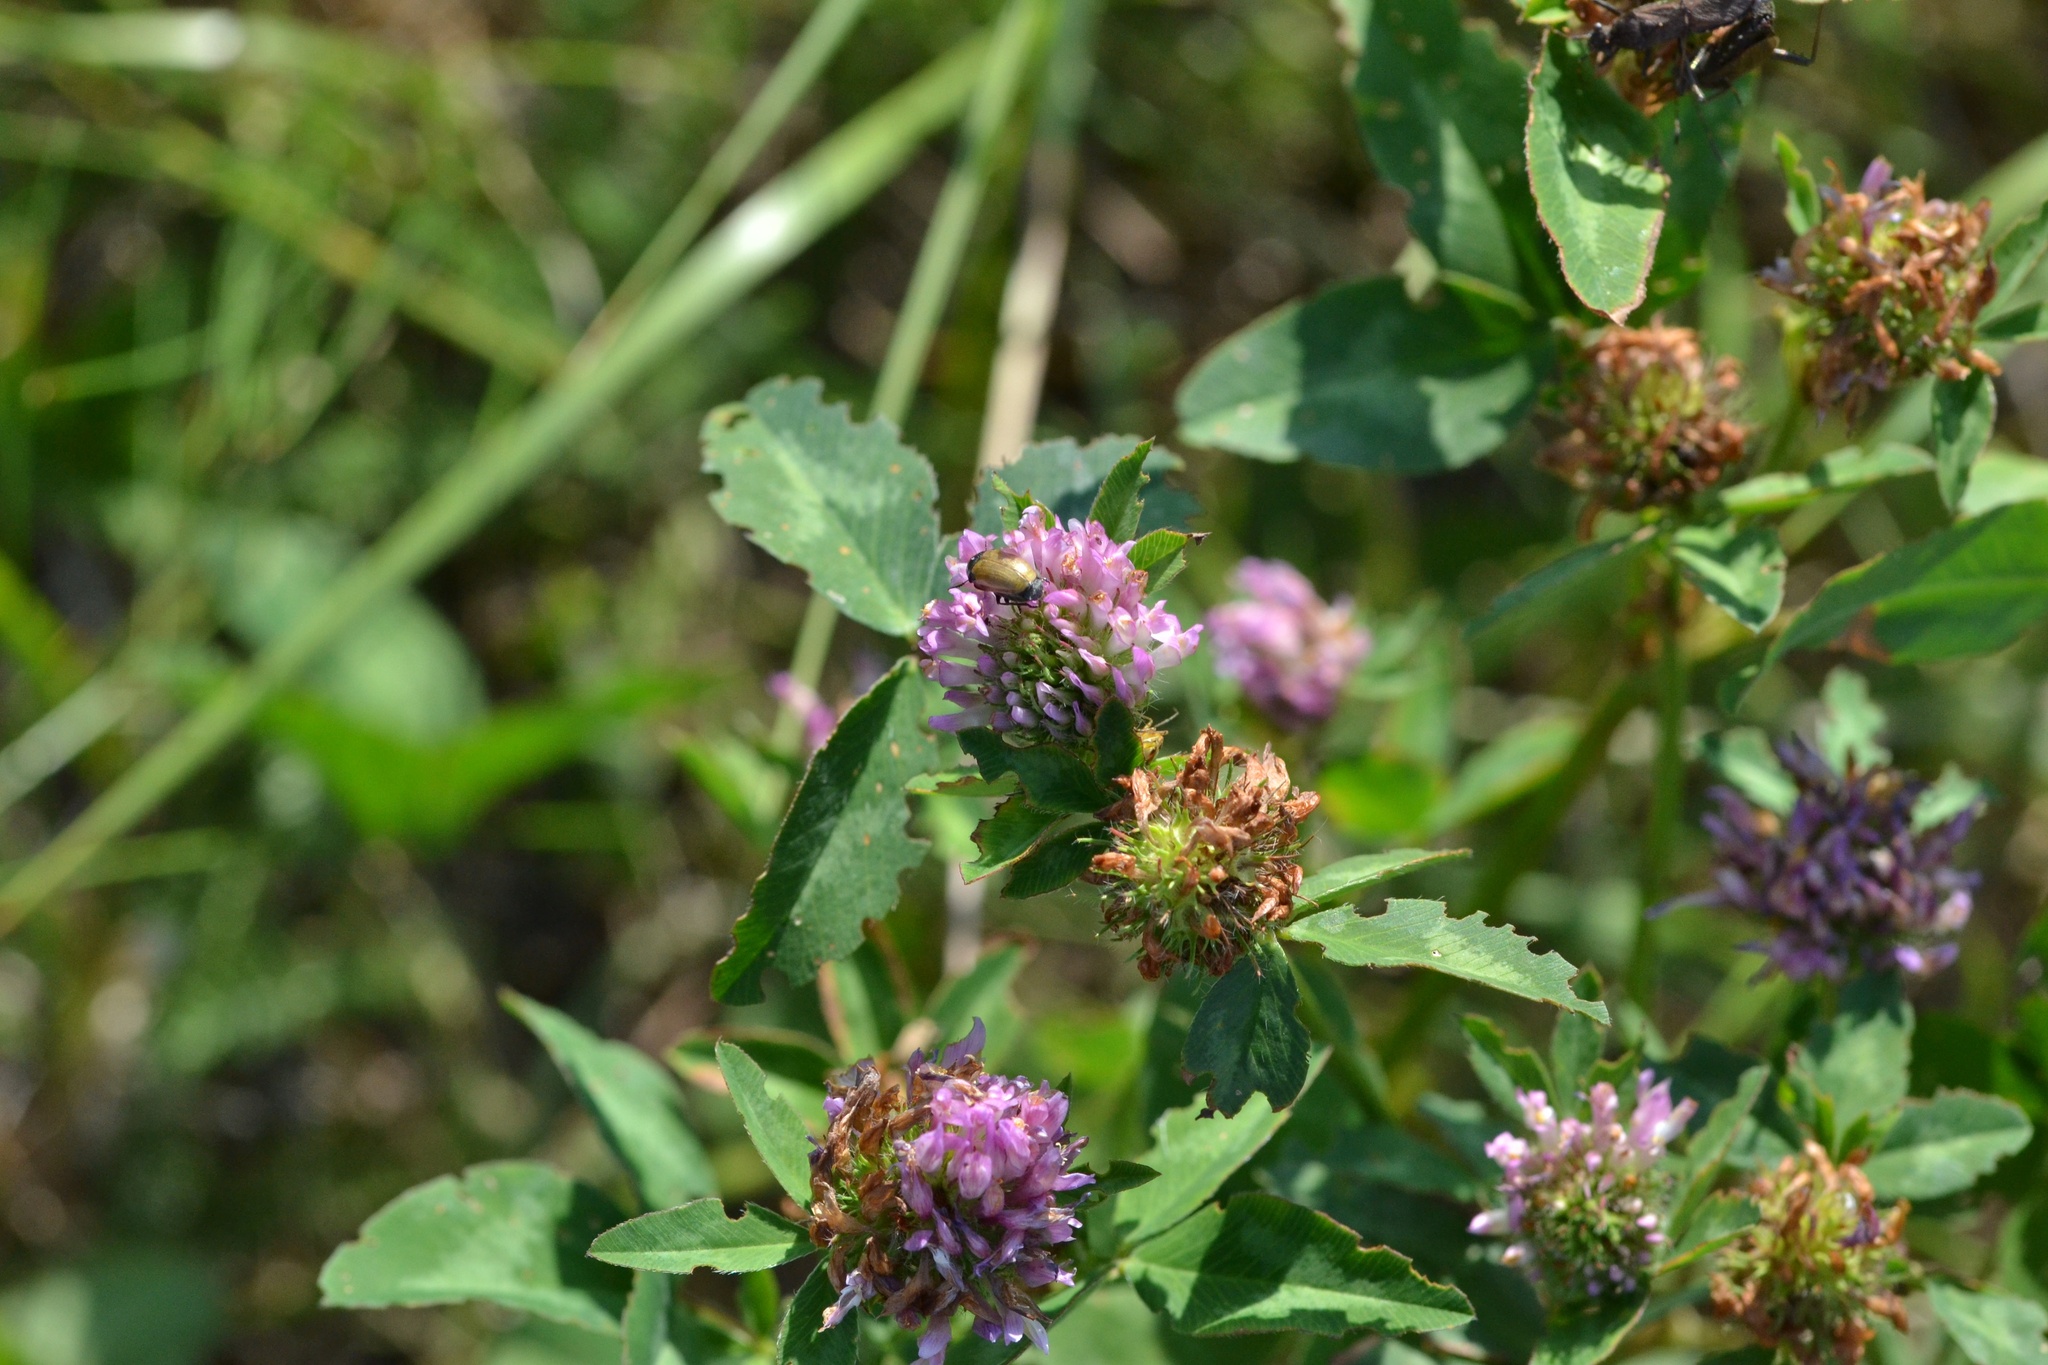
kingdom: Plantae
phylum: Tracheophyta
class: Magnoliopsida
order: Fabales
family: Fabaceae
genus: Trifolium
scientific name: Trifolium pratense
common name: Red clover
